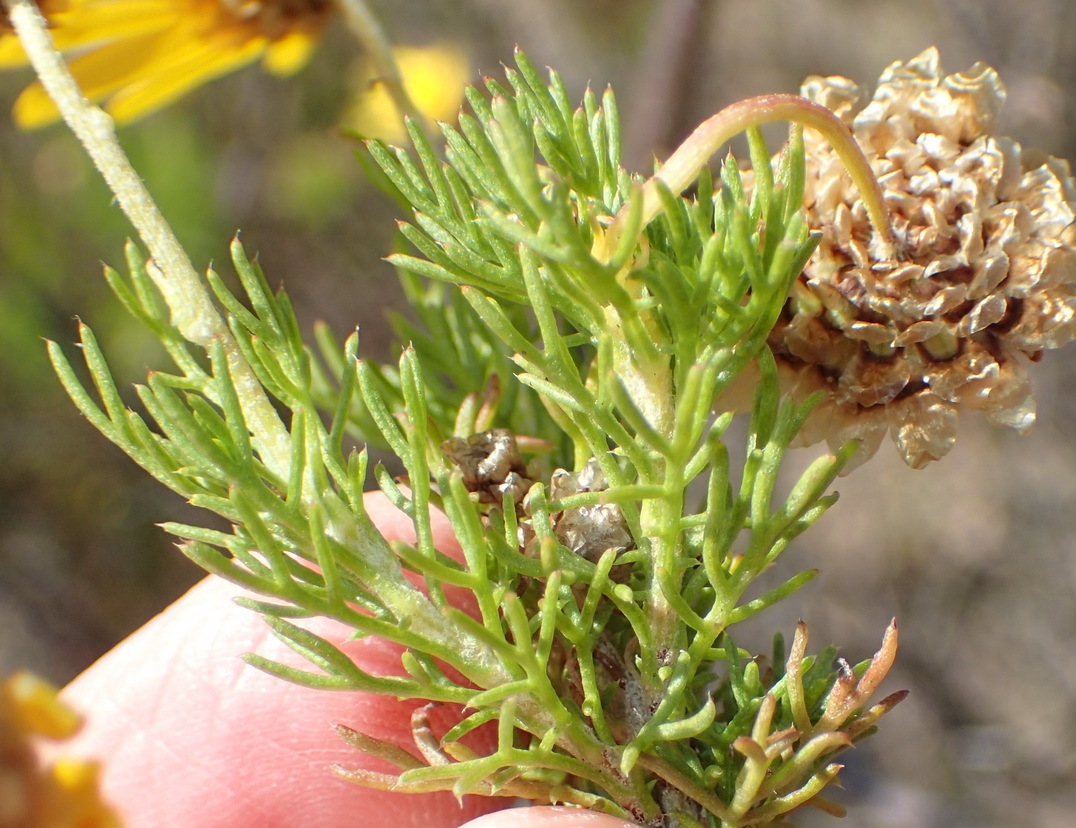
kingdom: Plantae
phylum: Tracheophyta
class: Magnoliopsida
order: Asterales
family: Asteraceae
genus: Ursinia
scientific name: Ursinia scariosa
